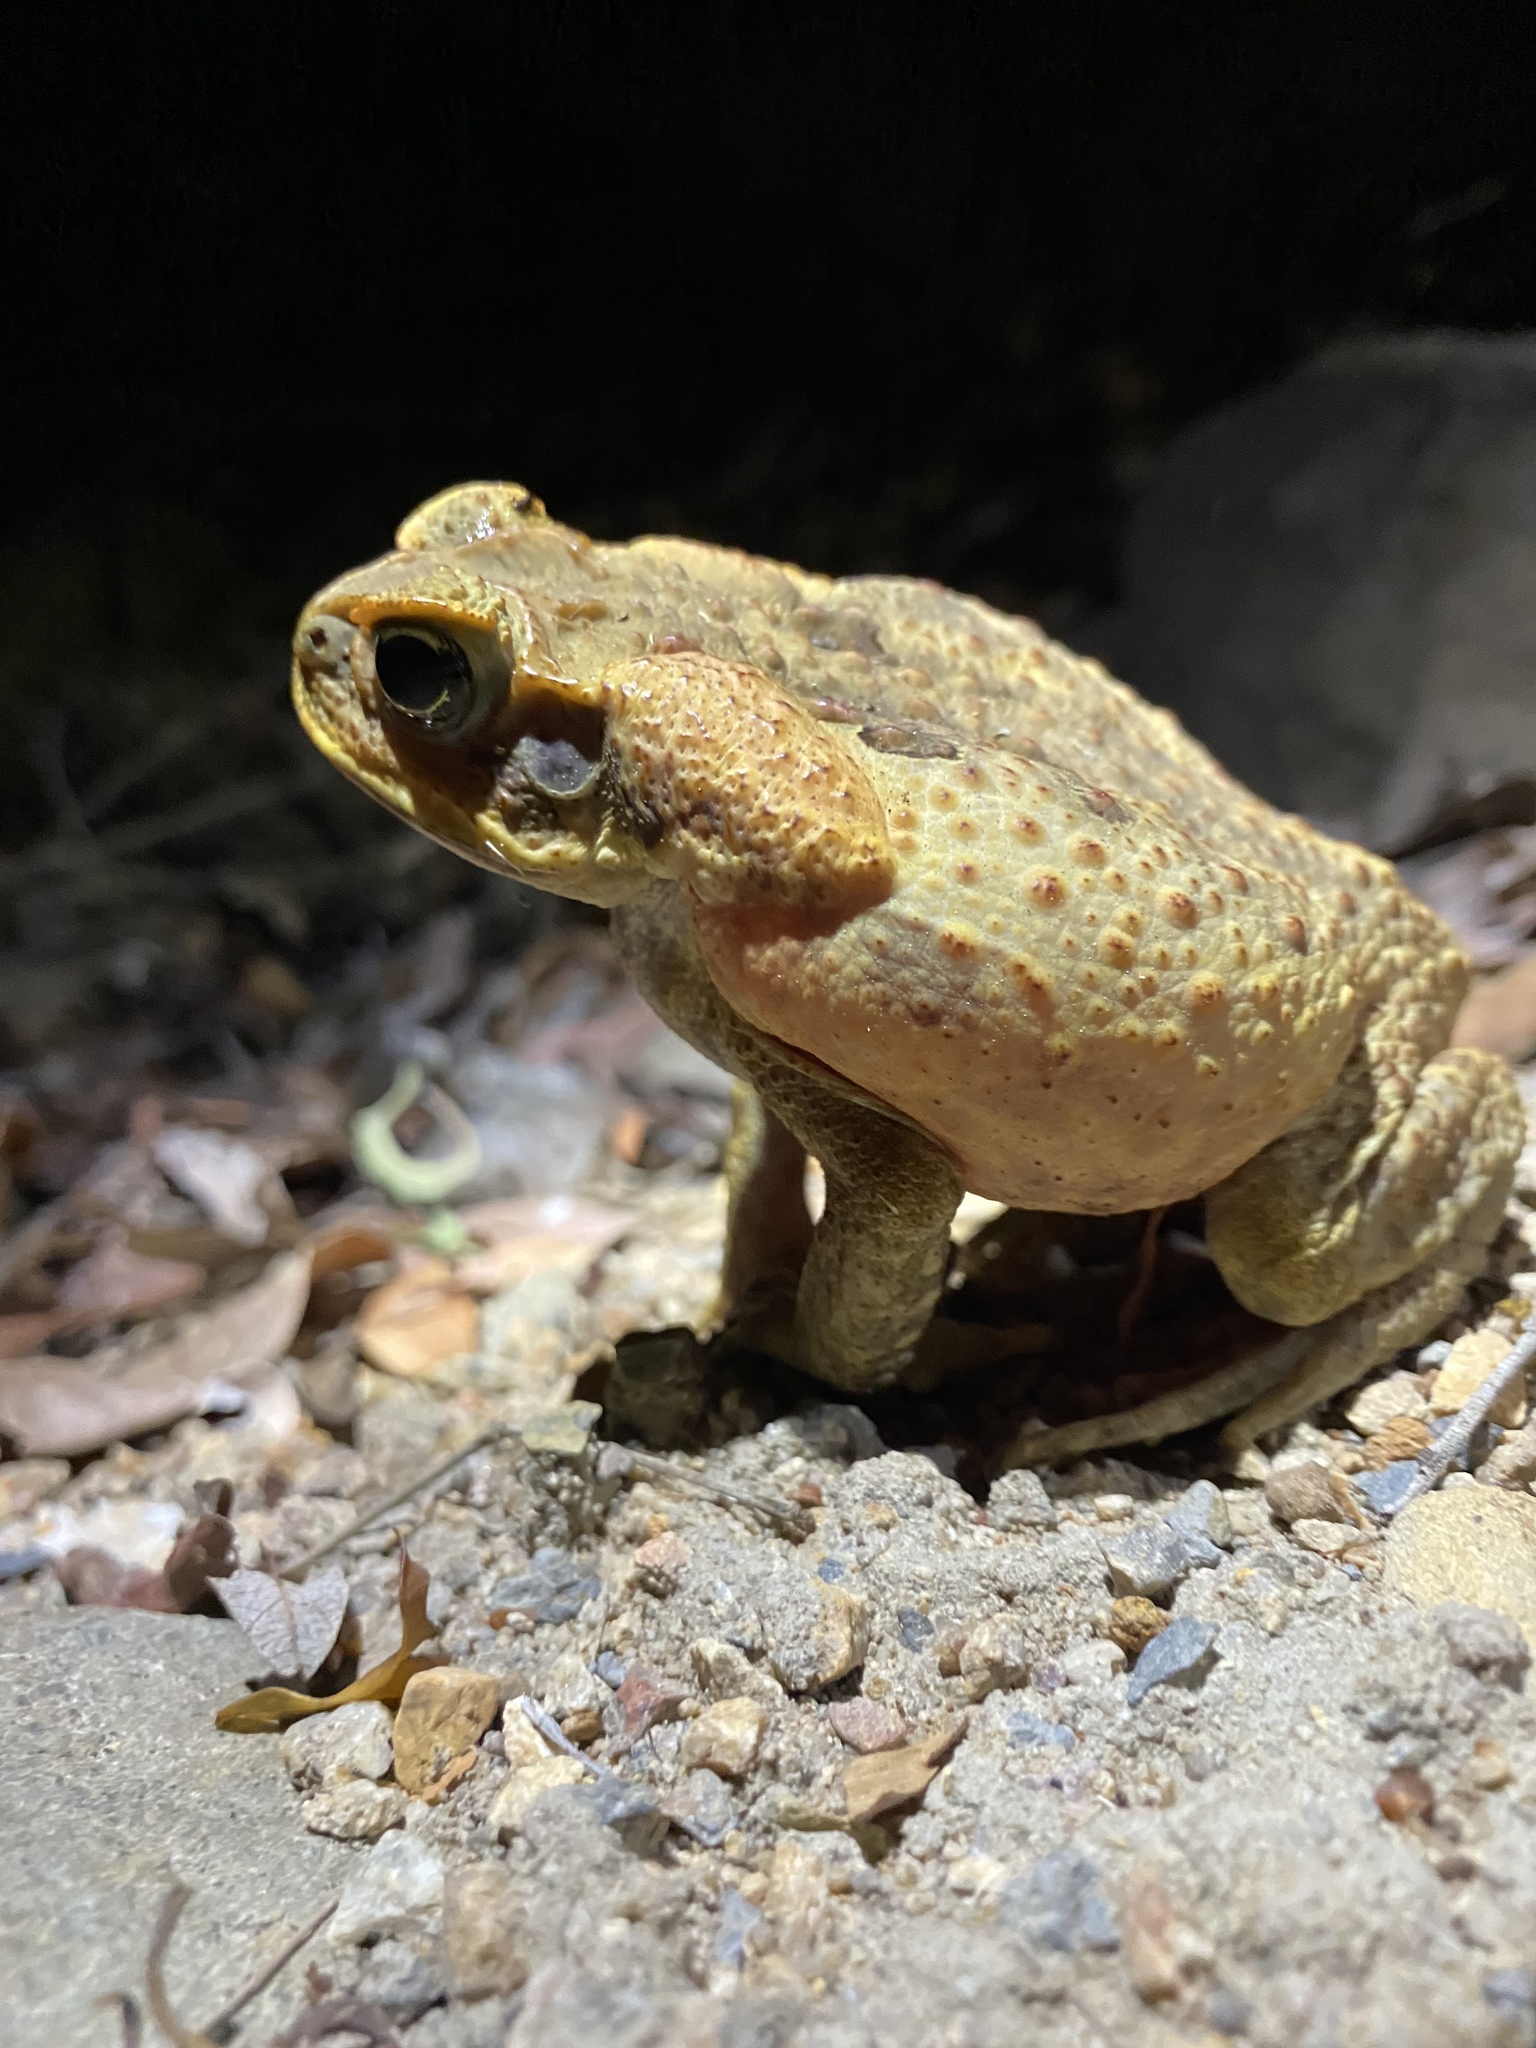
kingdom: Animalia
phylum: Chordata
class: Amphibia
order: Anura
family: Bufonidae
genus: Rhinella
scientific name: Rhinella marina
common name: Cane toad
